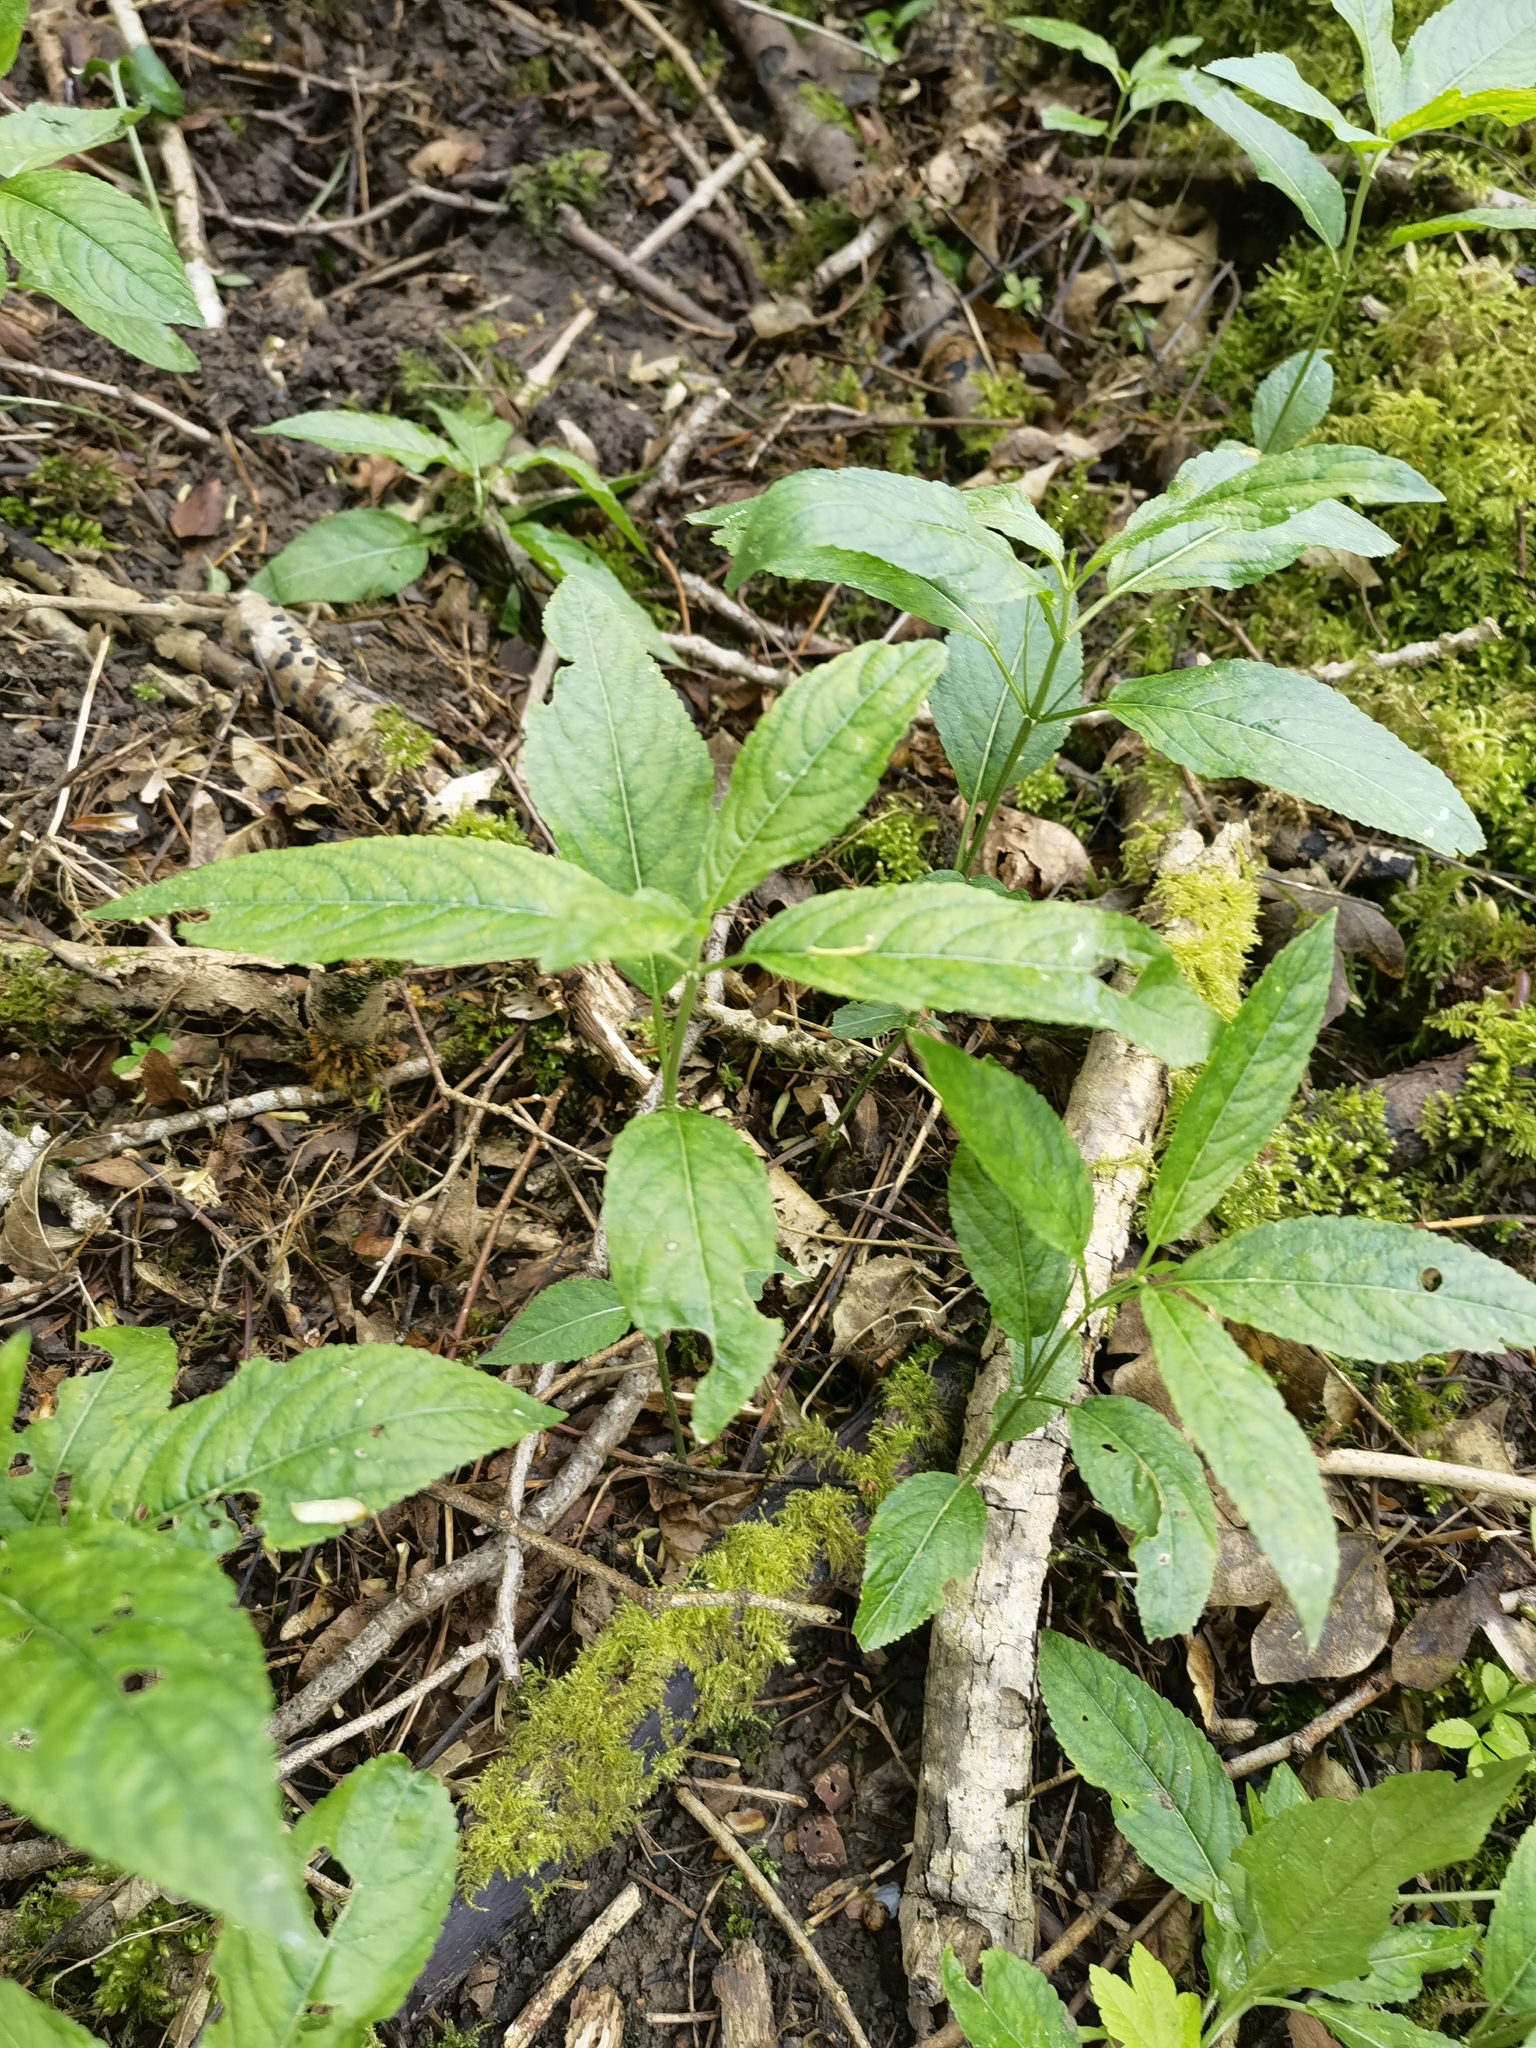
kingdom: Plantae
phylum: Tracheophyta
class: Magnoliopsida
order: Malpighiales
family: Euphorbiaceae
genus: Mercurialis
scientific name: Mercurialis perennis
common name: Dog mercury
